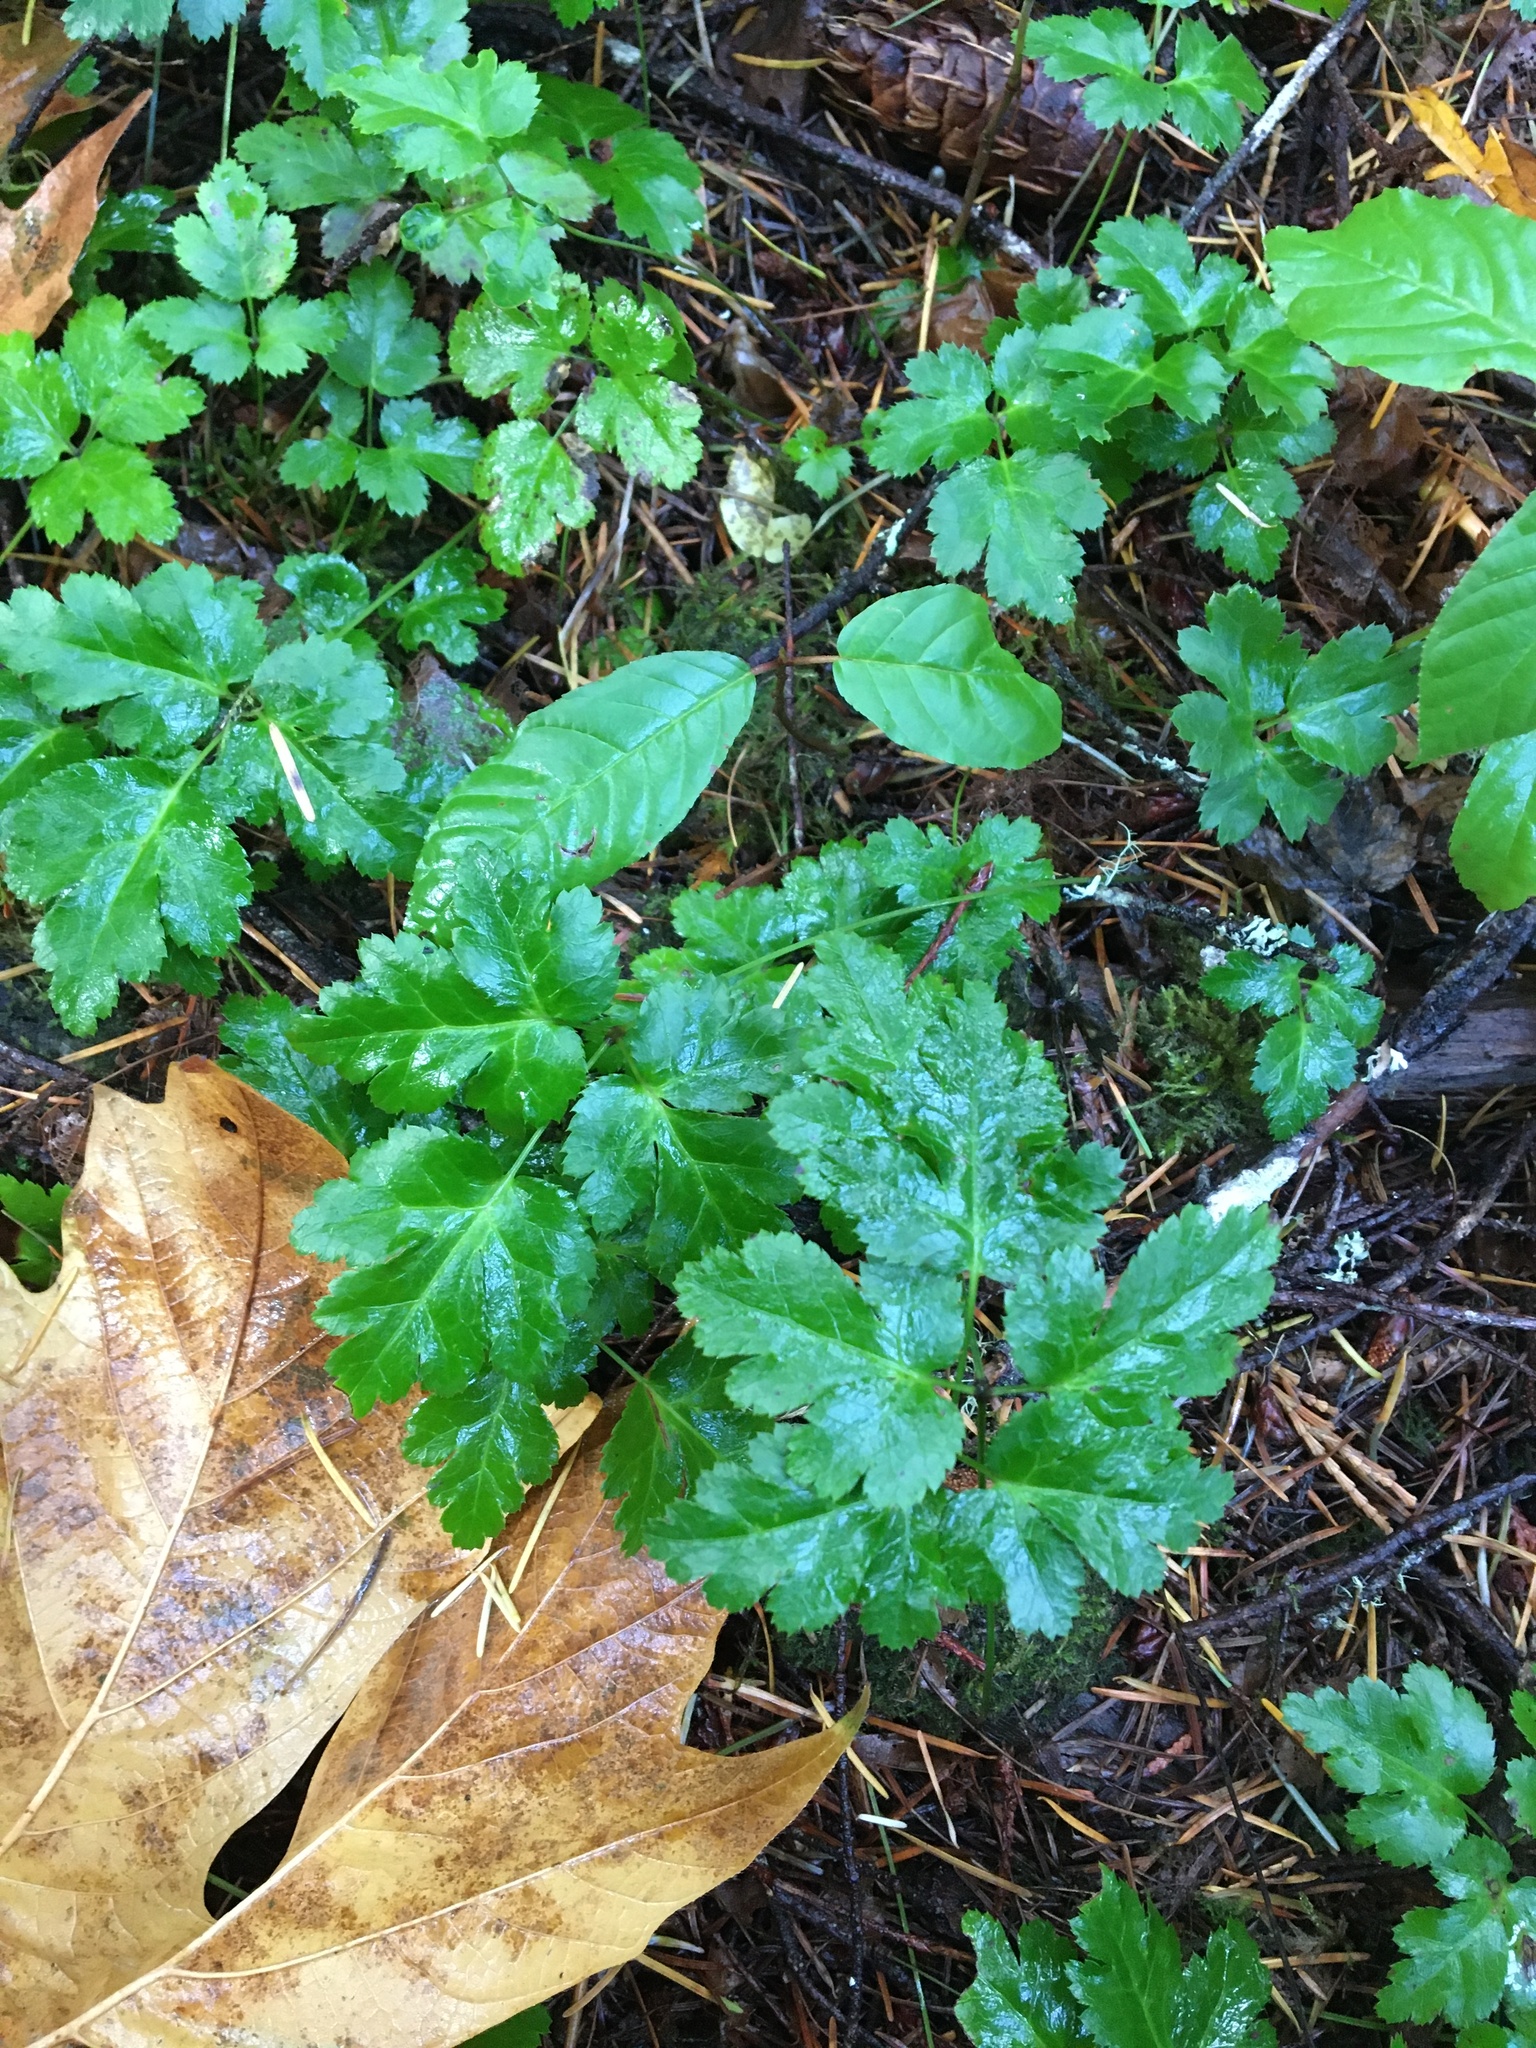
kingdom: Plantae
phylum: Tracheophyta
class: Magnoliopsida
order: Ranunculales
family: Ranunculaceae
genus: Coptis
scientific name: Coptis laciniata
